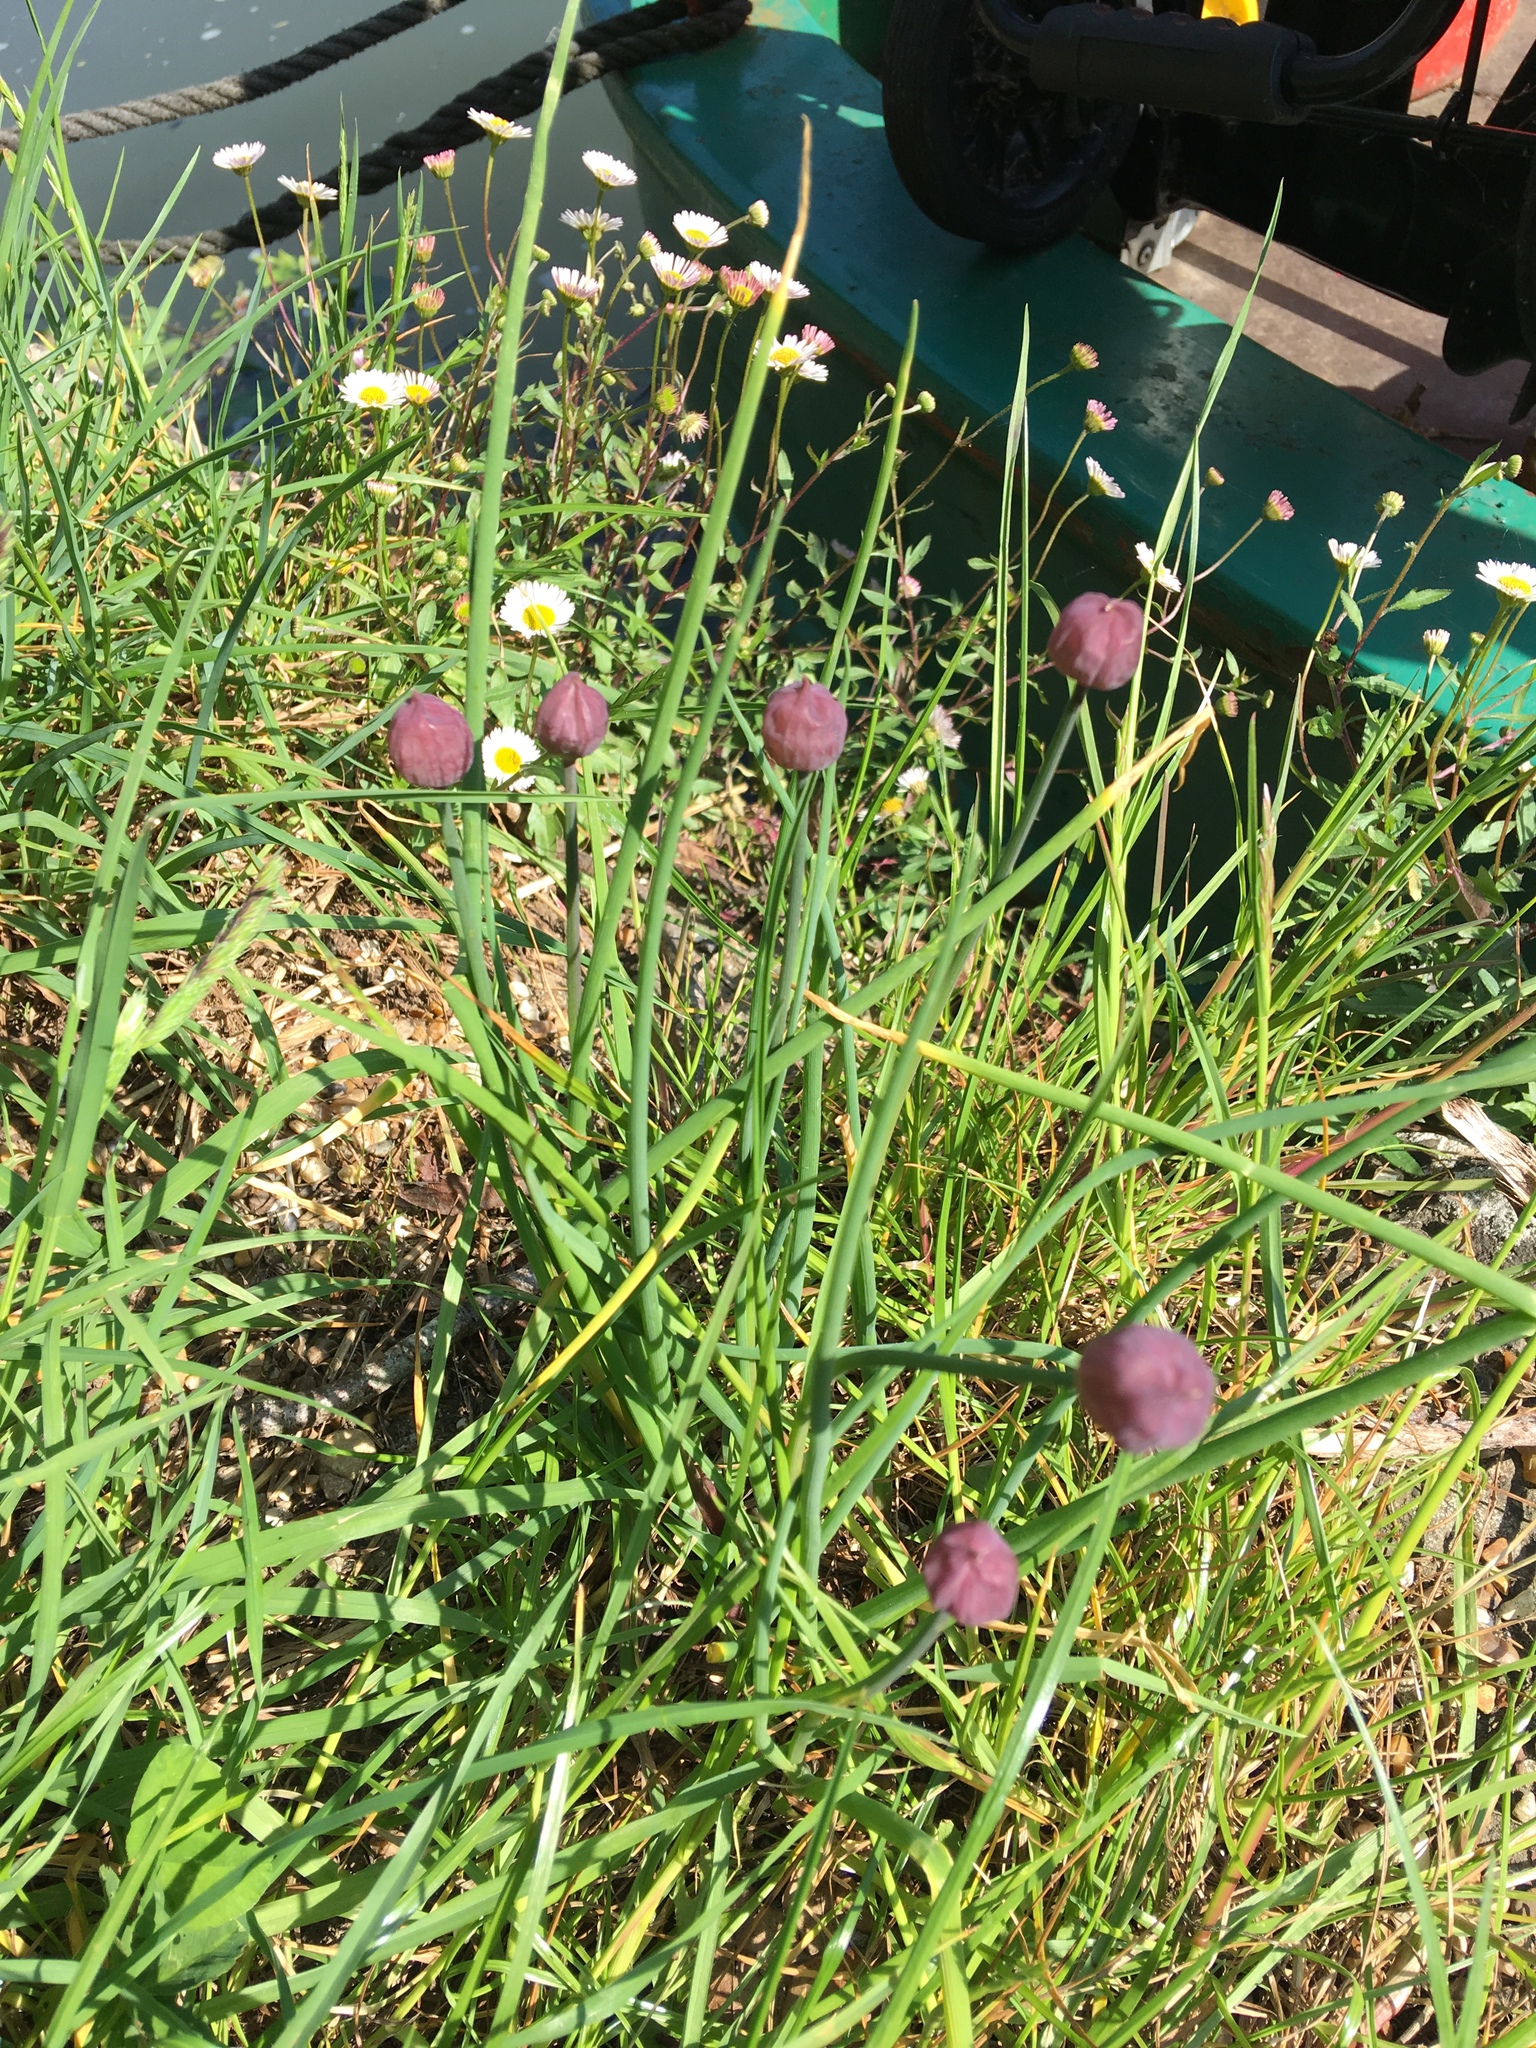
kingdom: Plantae
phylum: Tracheophyta
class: Liliopsida
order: Asparagales
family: Amaryllidaceae
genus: Allium
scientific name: Allium schoenoprasum
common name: Chives
